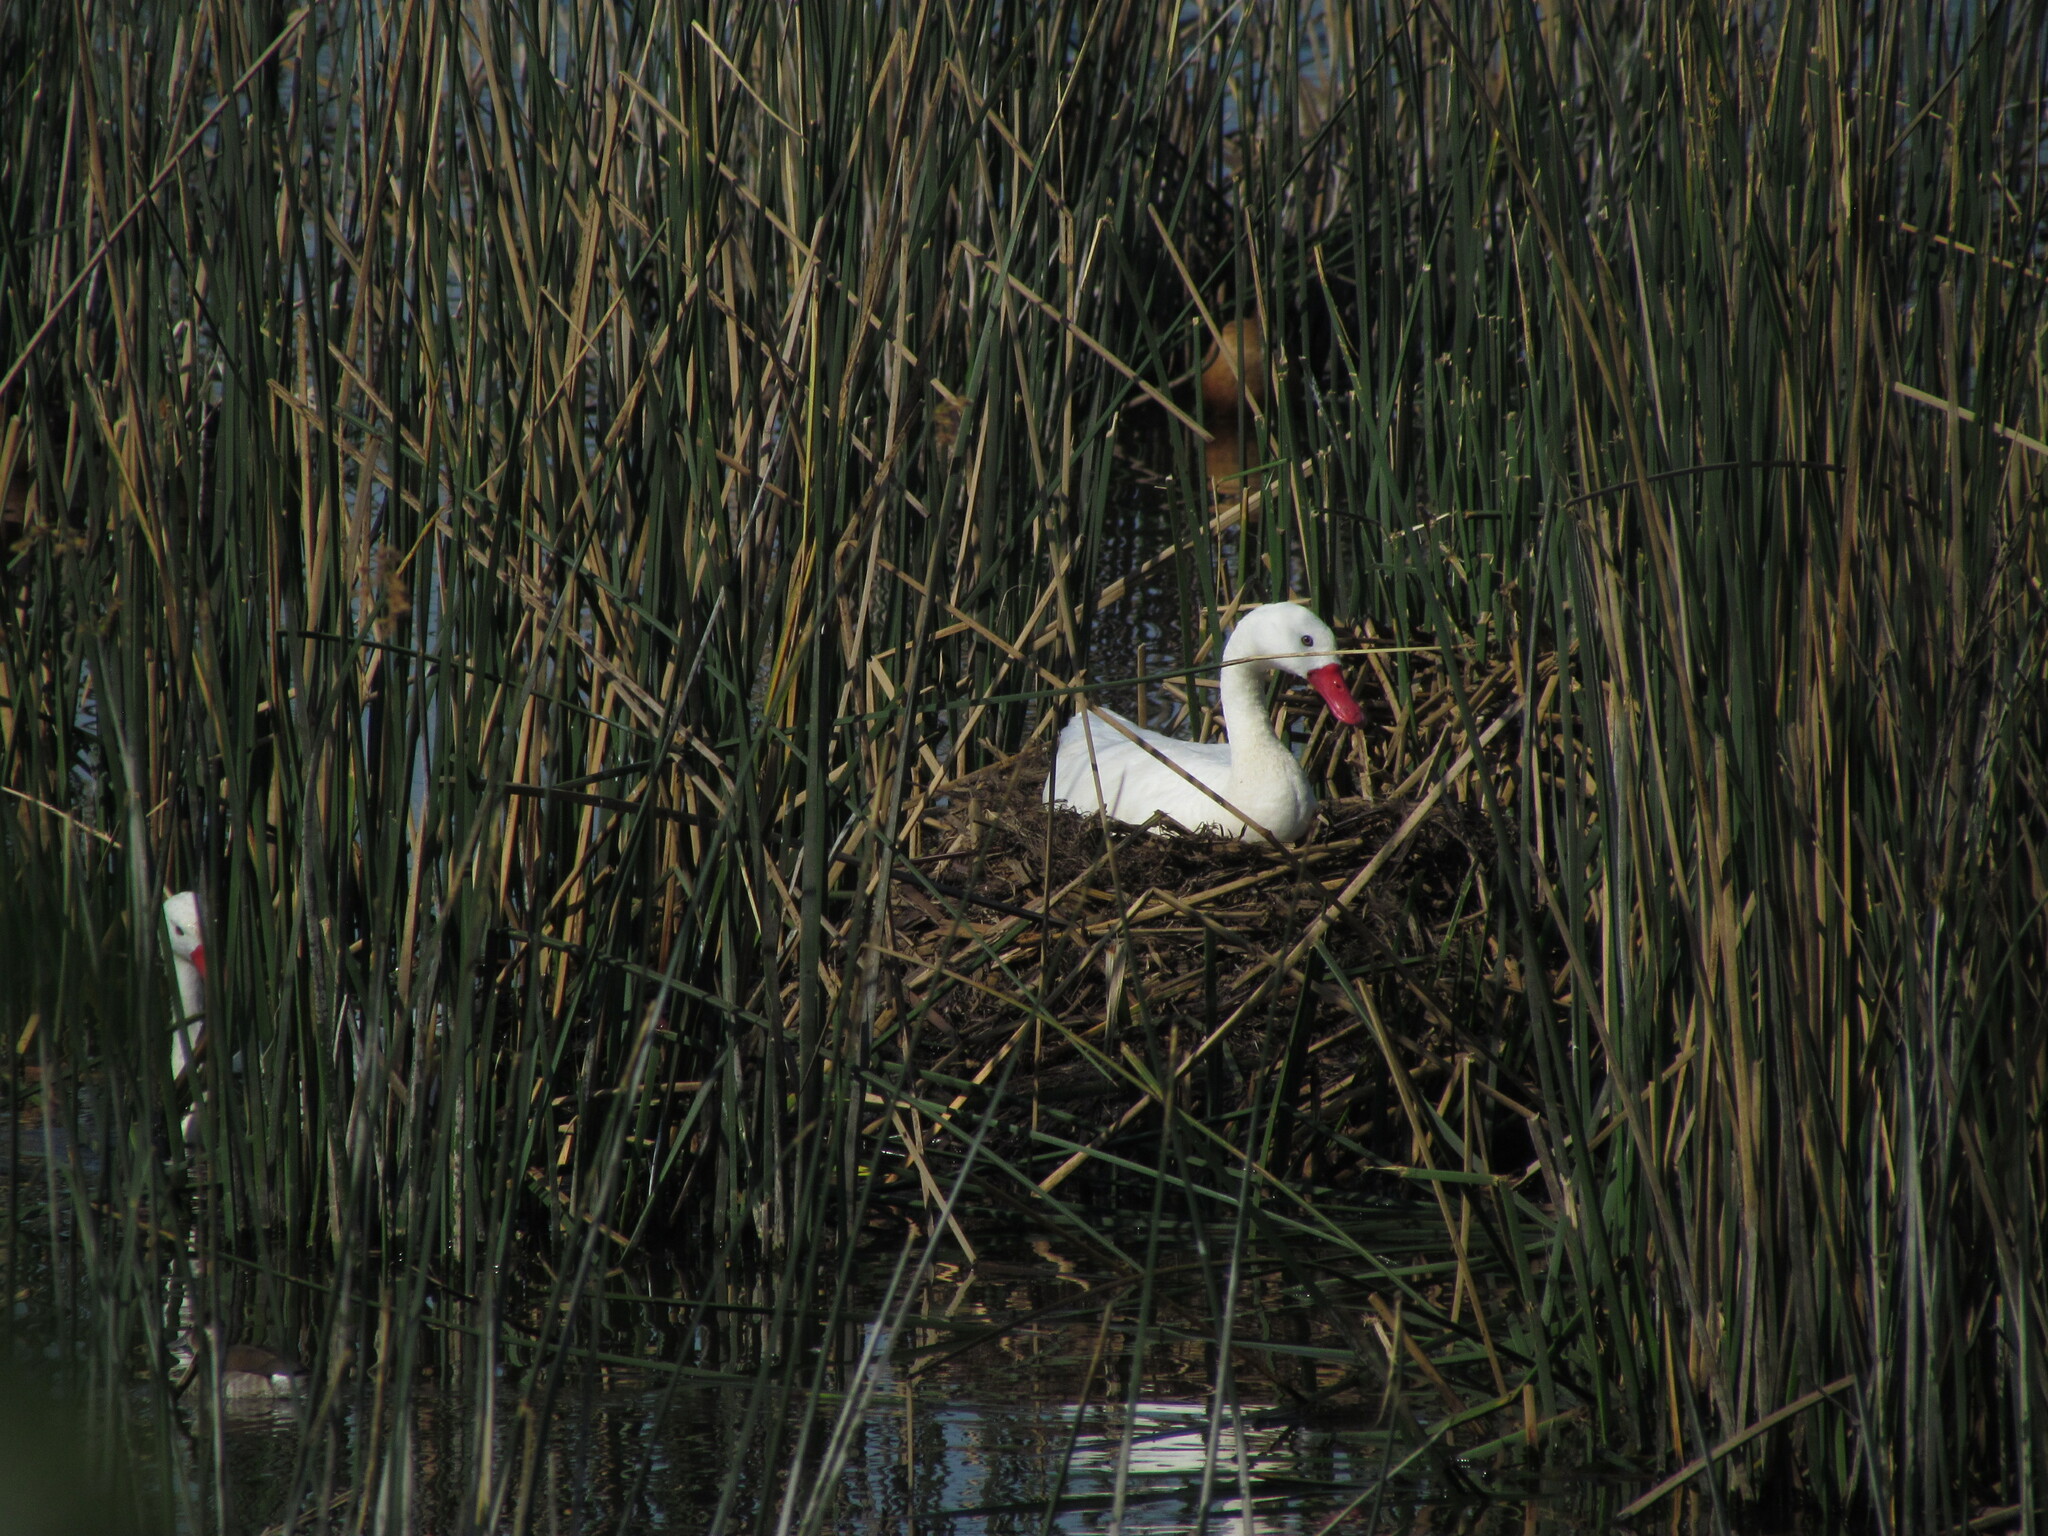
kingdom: Animalia
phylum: Chordata
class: Aves
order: Anseriformes
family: Anatidae
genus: Coscoroba
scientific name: Coscoroba coscoroba
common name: Coscoroba swan
